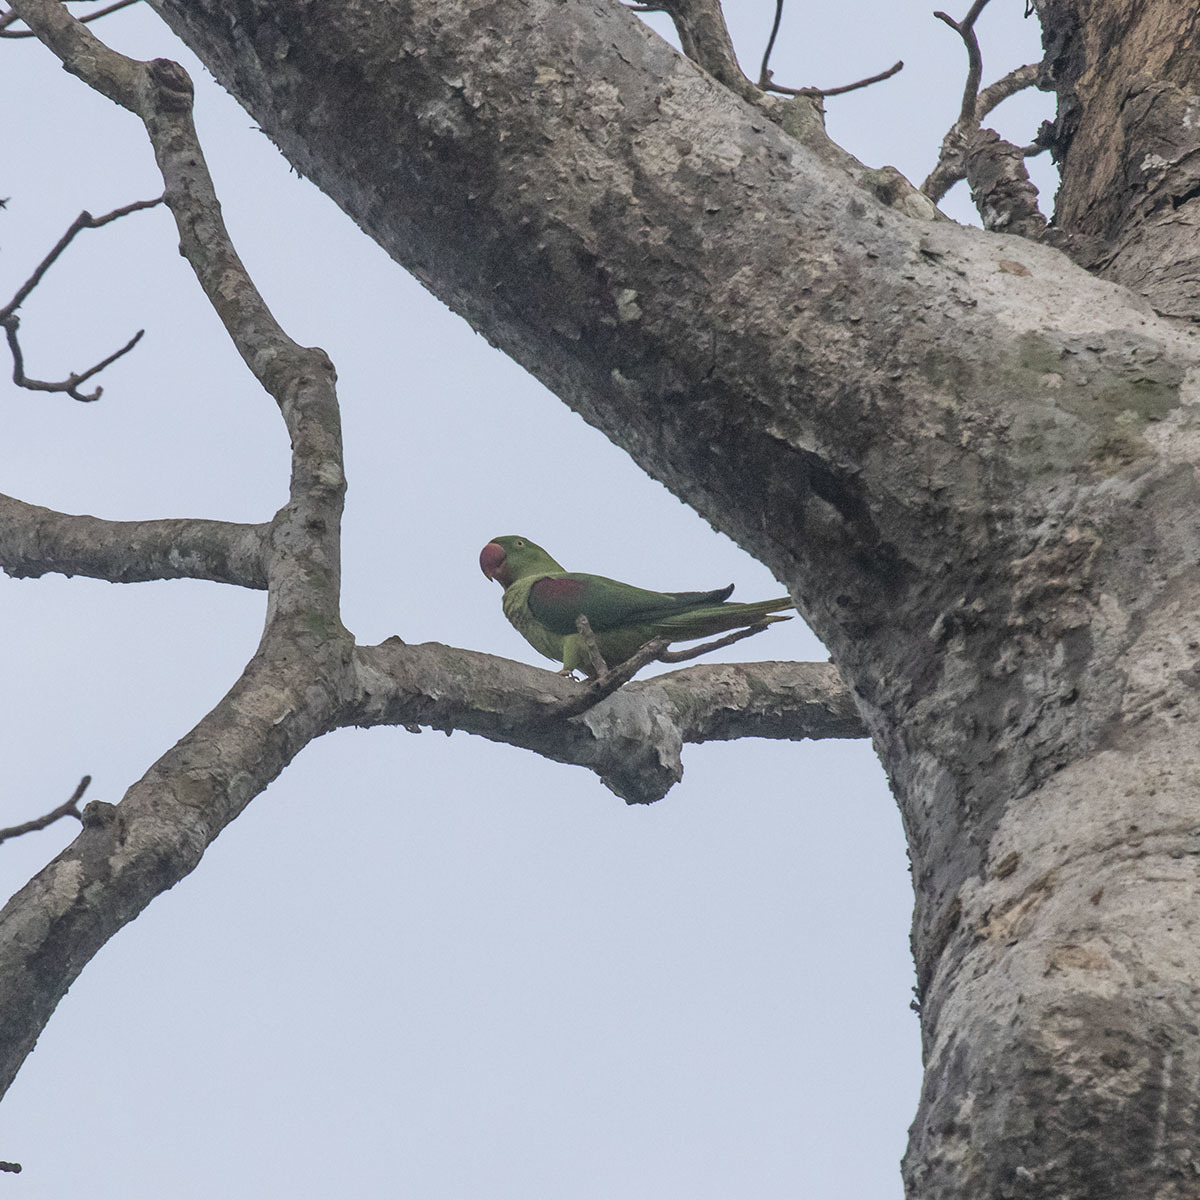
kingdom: Animalia
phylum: Chordata
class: Aves
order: Psittaciformes
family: Psittacidae
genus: Psittacula
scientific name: Psittacula eupatria
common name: Alexandrine parakeet
